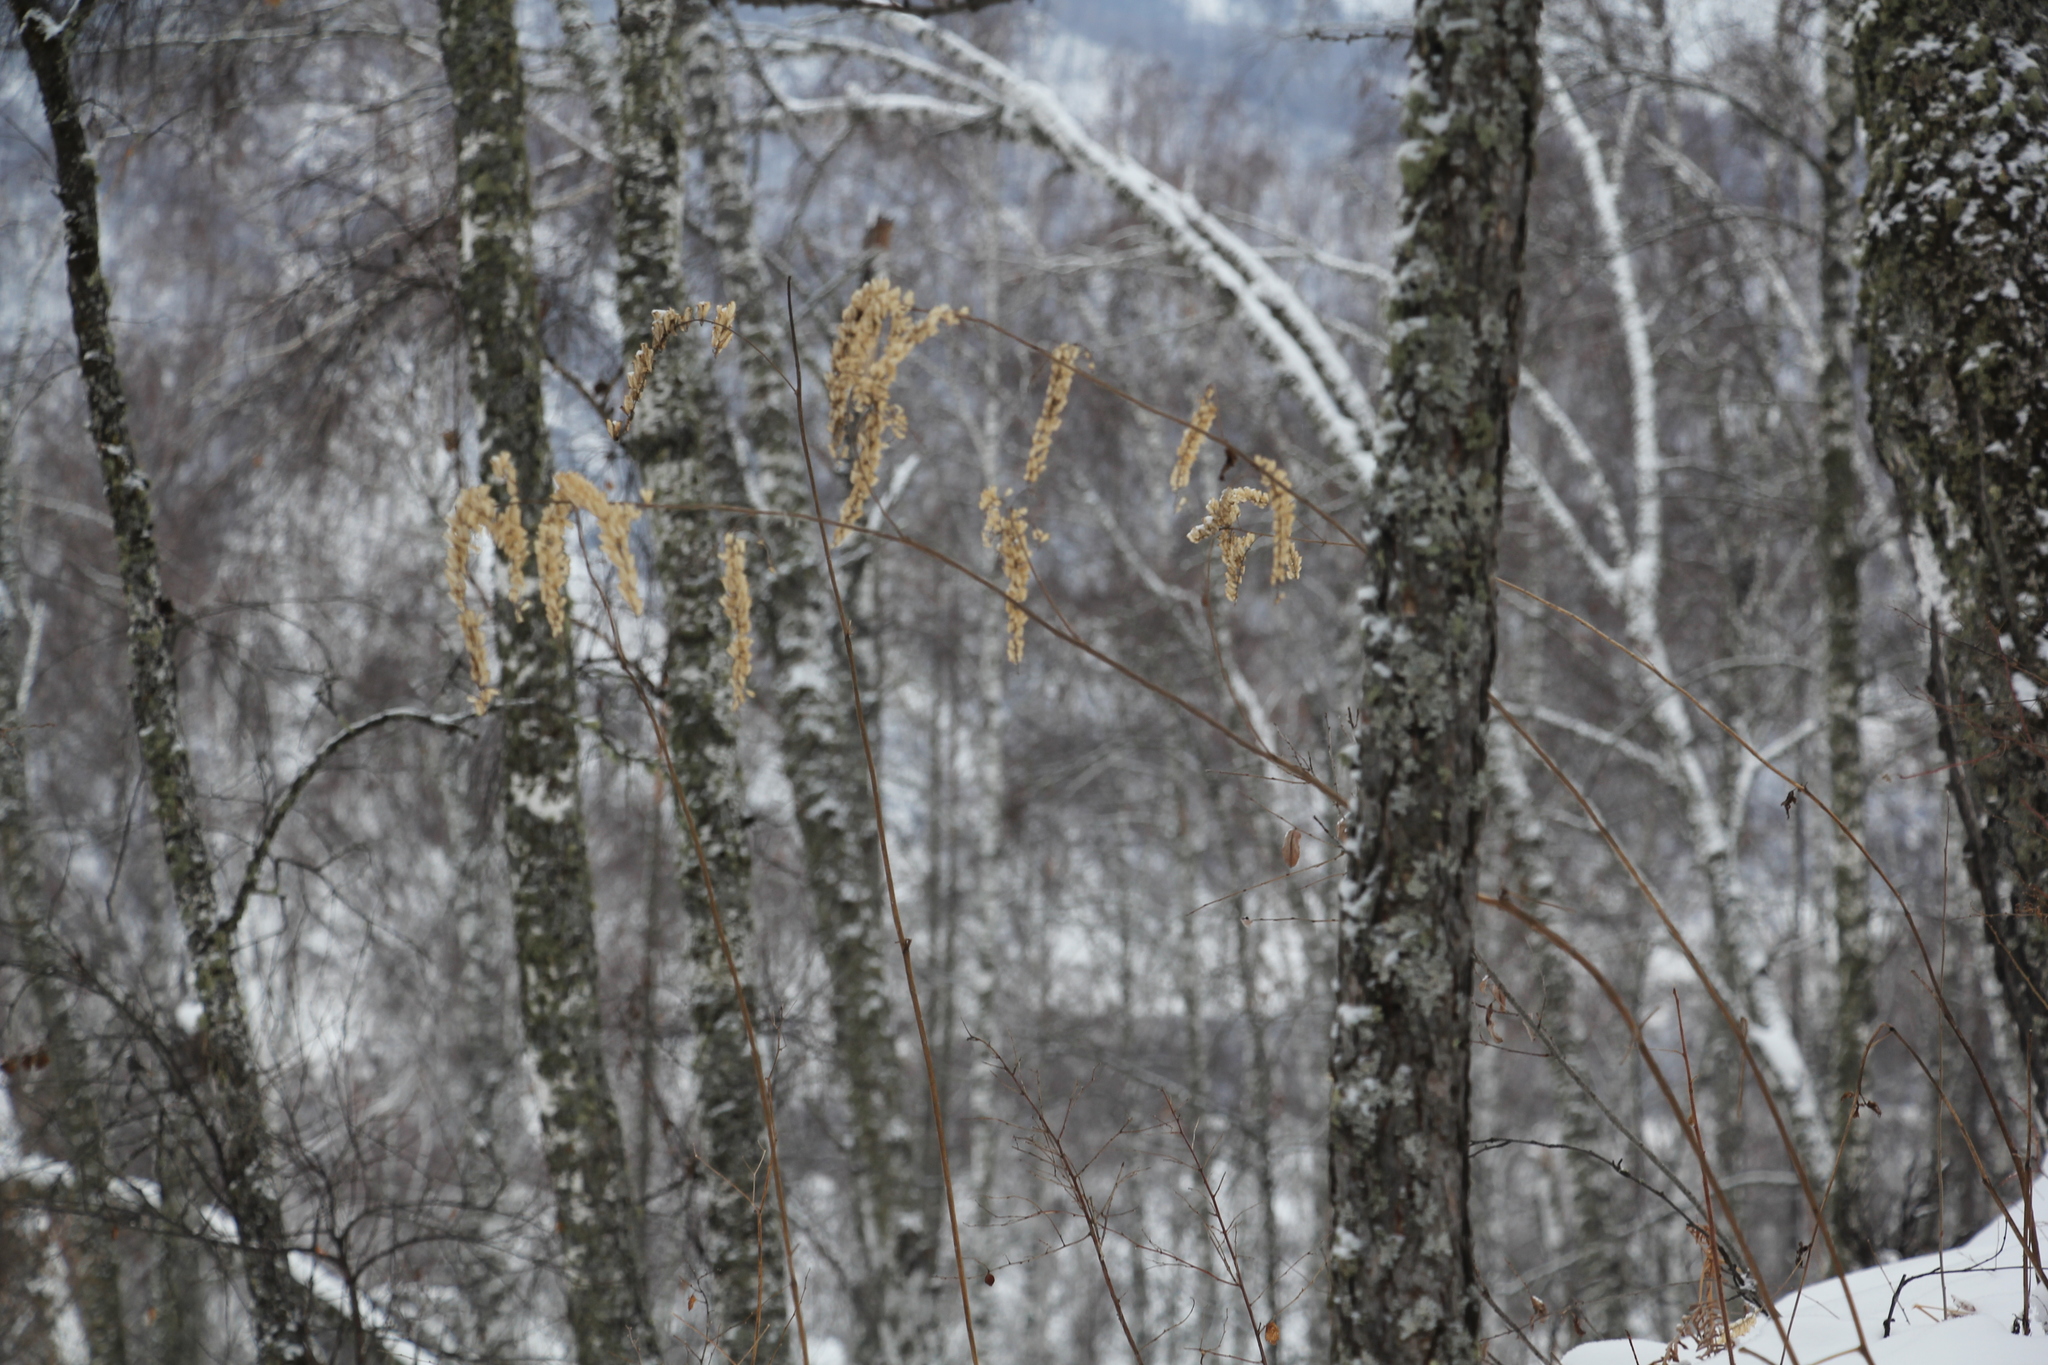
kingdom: Plantae
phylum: Tracheophyta
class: Magnoliopsida
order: Ranunculales
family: Ranunculaceae
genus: Actaea
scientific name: Actaea cimicifuga
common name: Chinese cimicifuga
